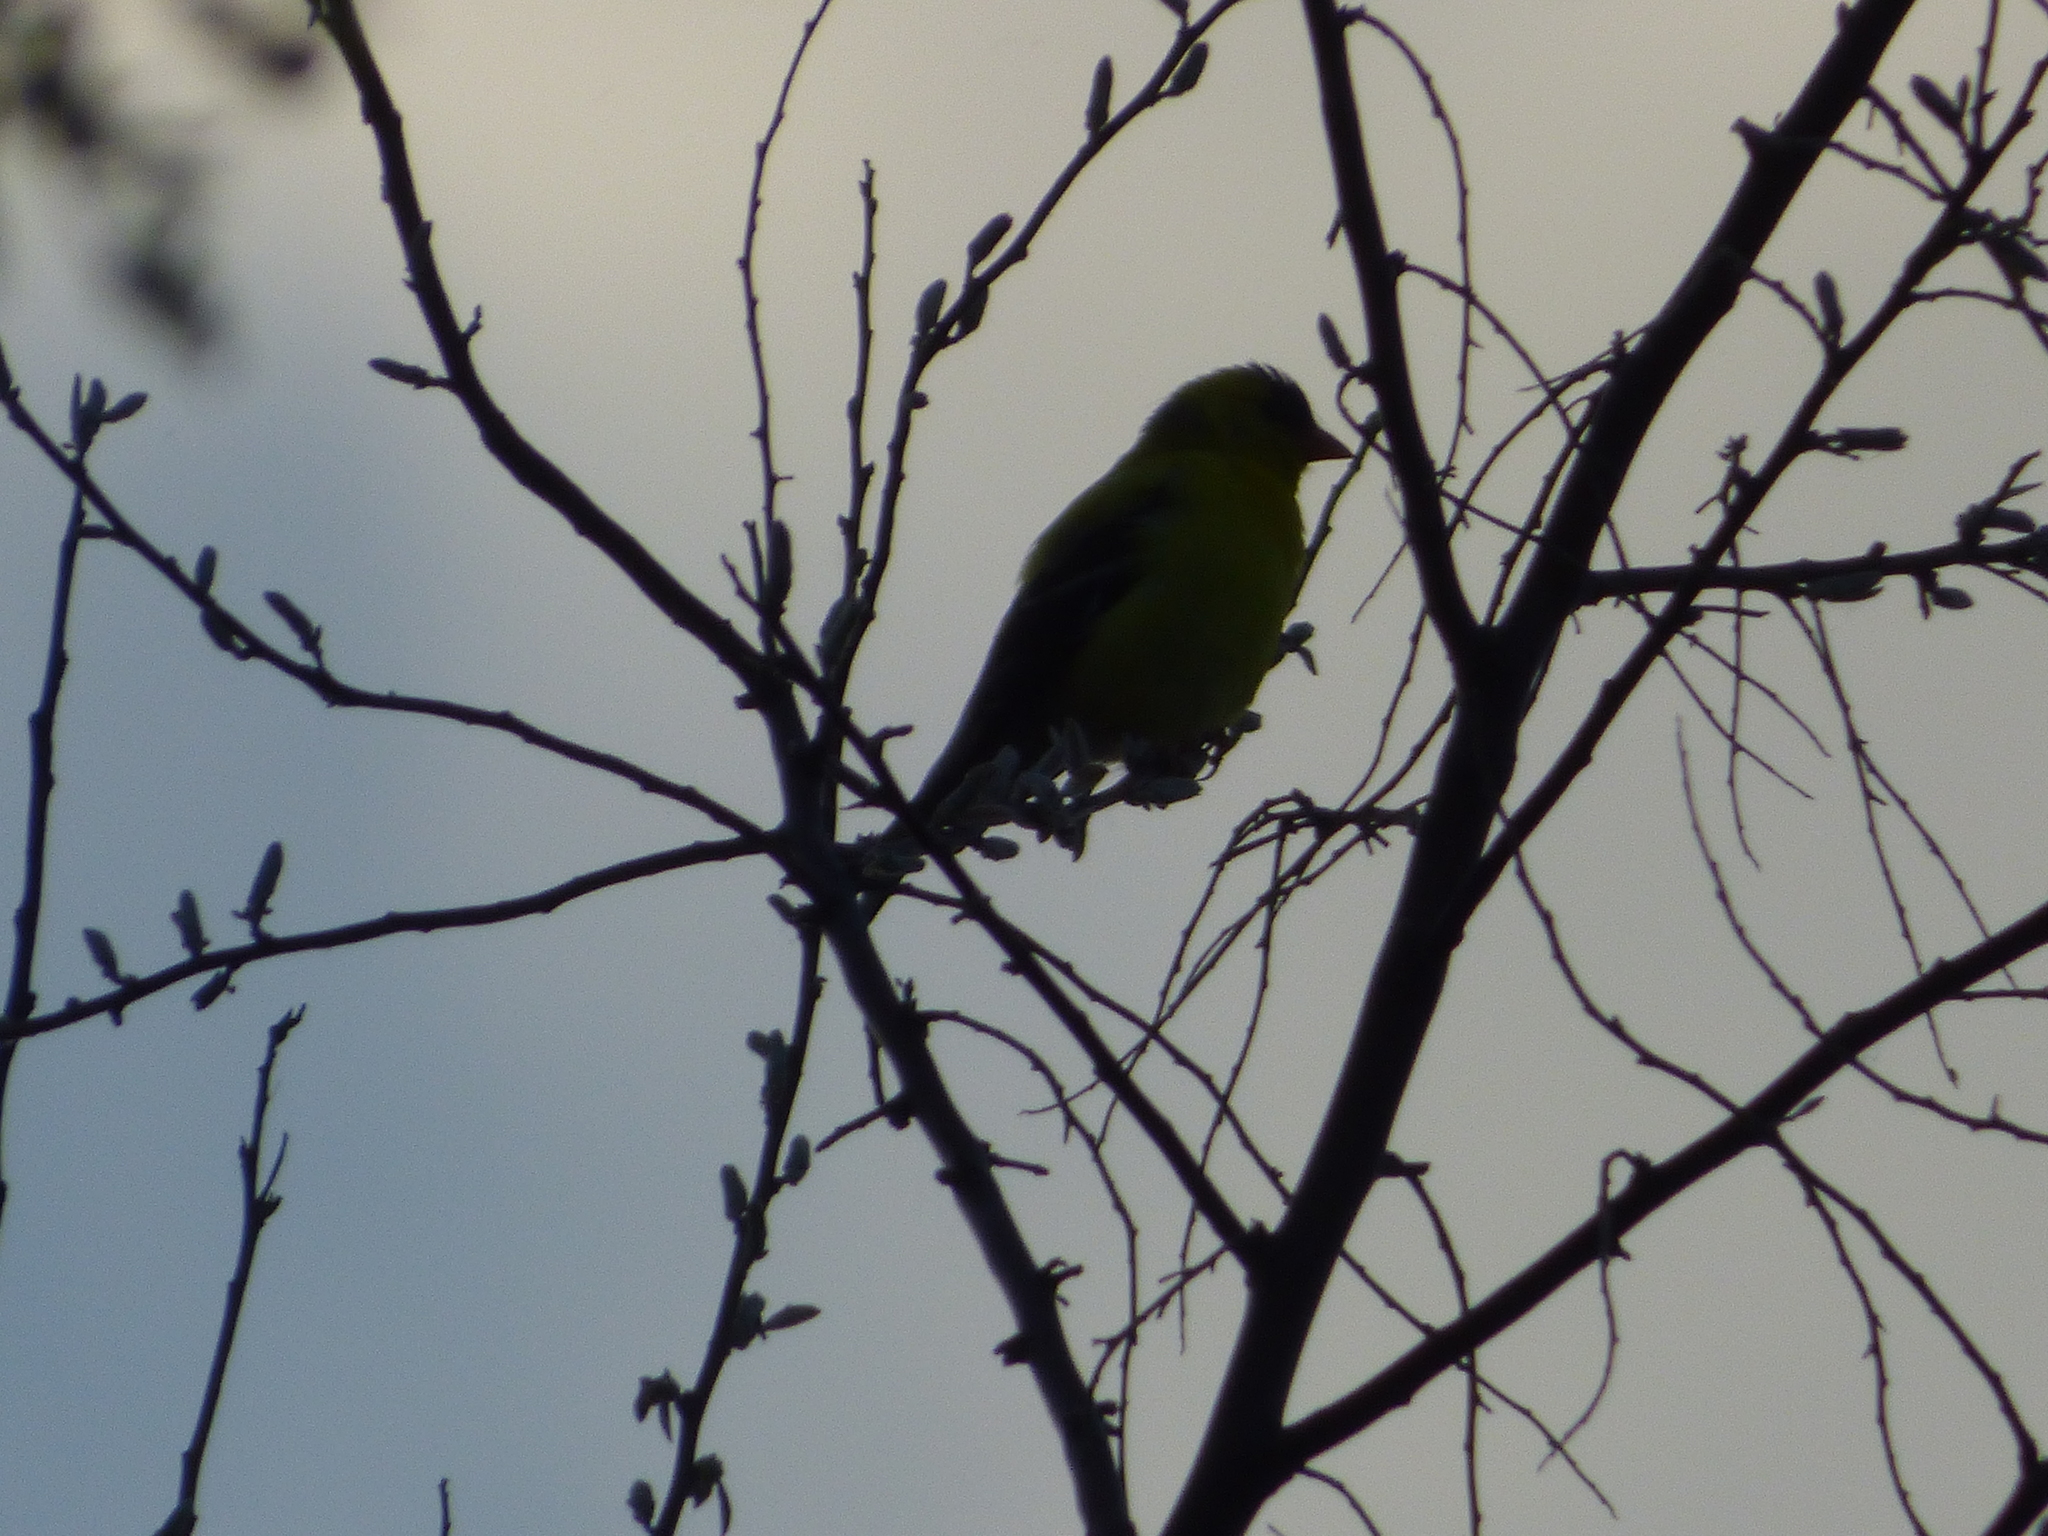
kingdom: Animalia
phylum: Chordata
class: Aves
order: Passeriformes
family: Fringillidae
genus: Spinus
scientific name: Spinus tristis
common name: American goldfinch
